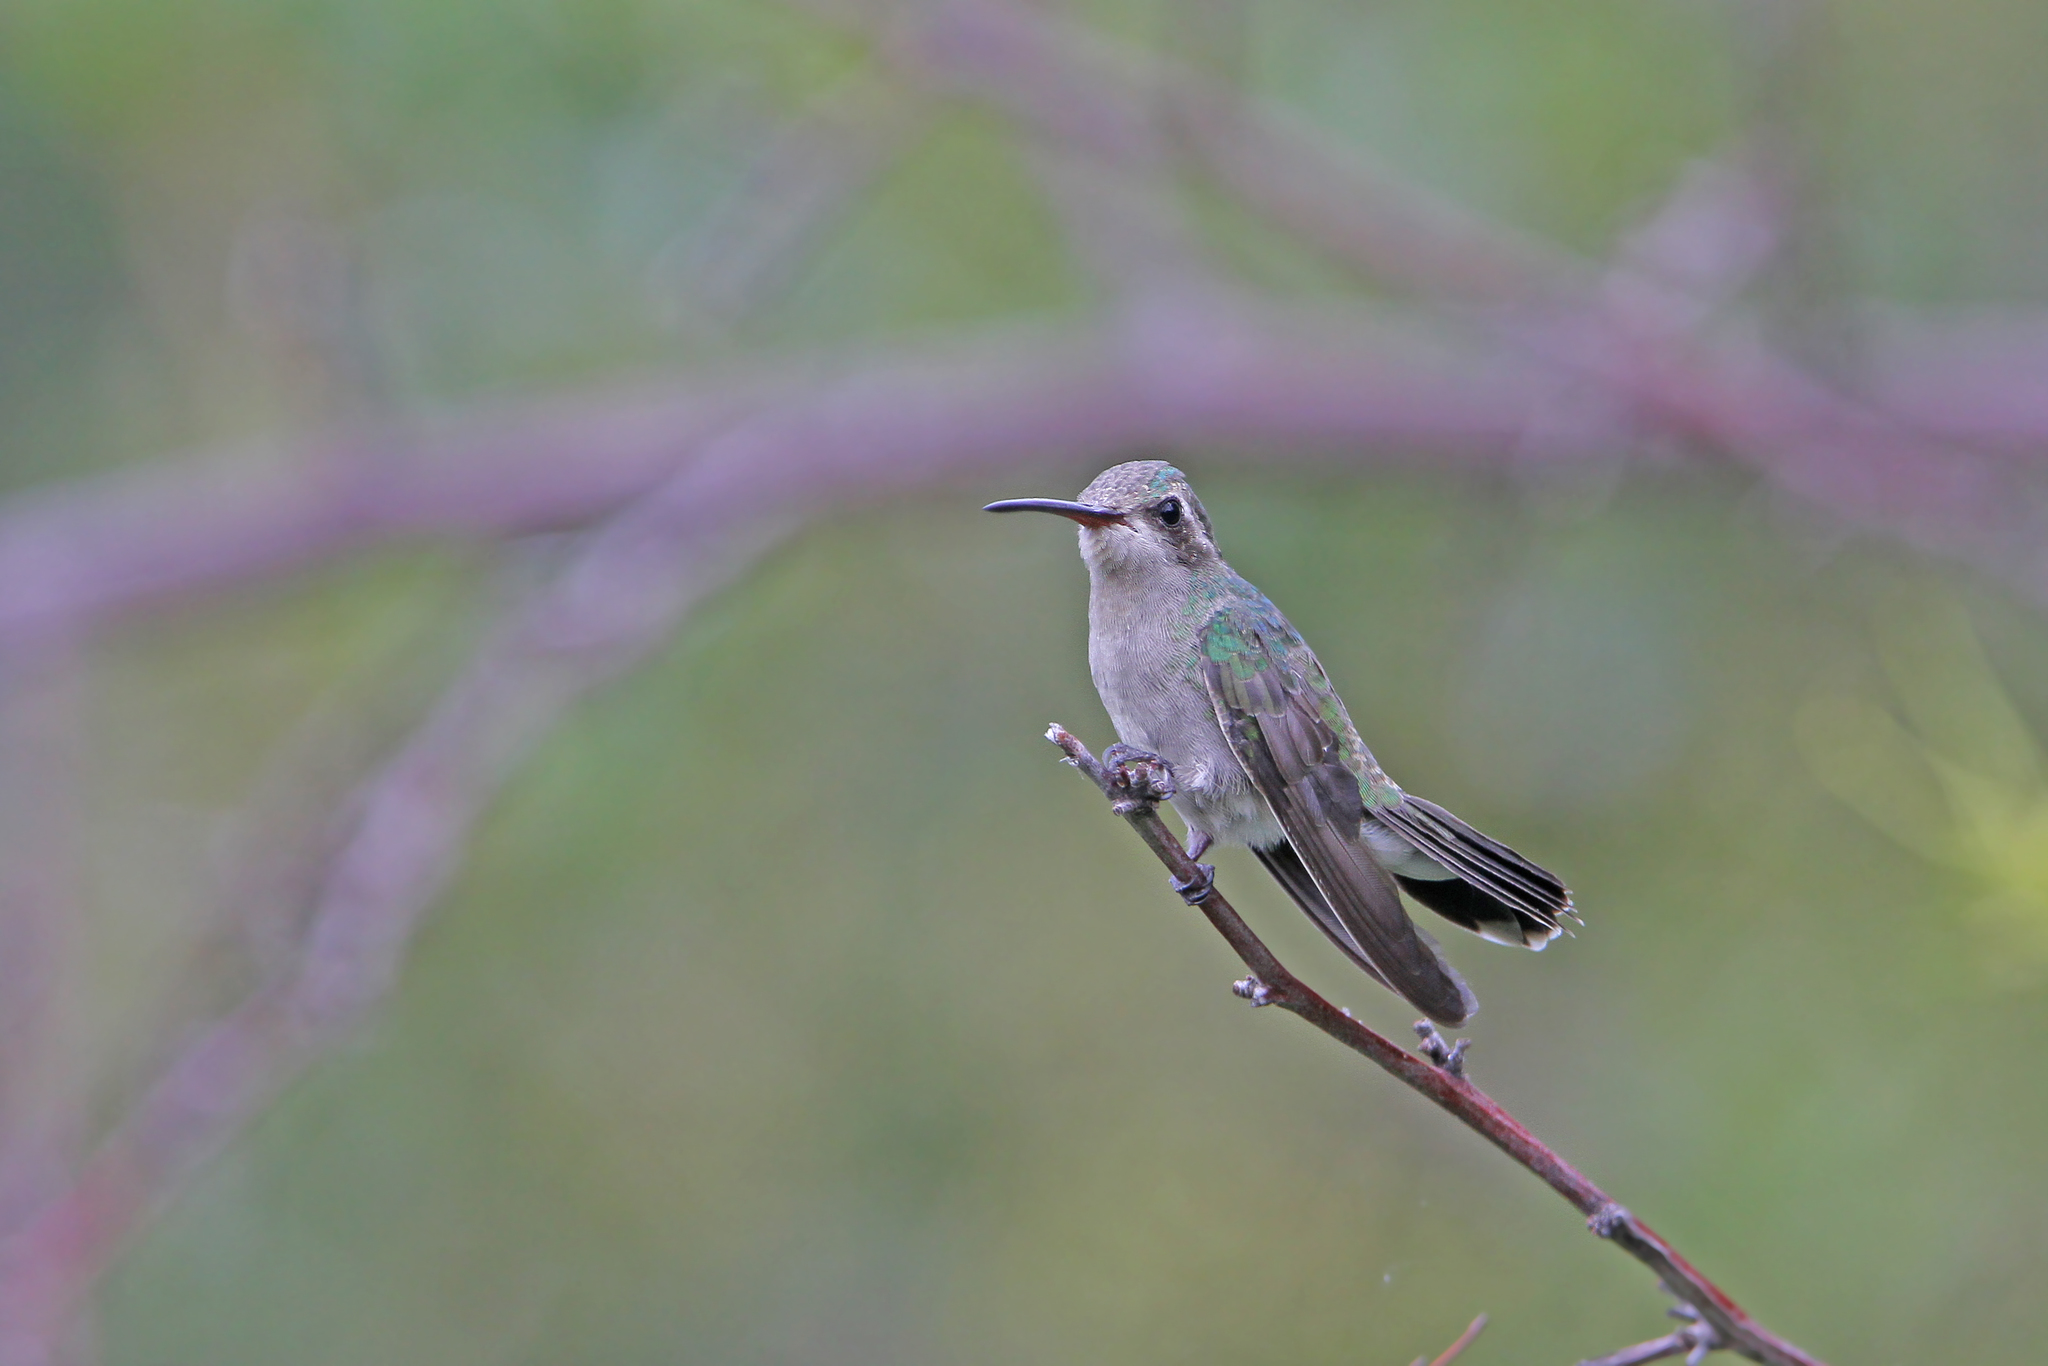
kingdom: Animalia
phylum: Chordata
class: Aves
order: Apodiformes
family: Trochilidae
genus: Cynanthus
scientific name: Cynanthus latirostris
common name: Broad-billed hummingbird
